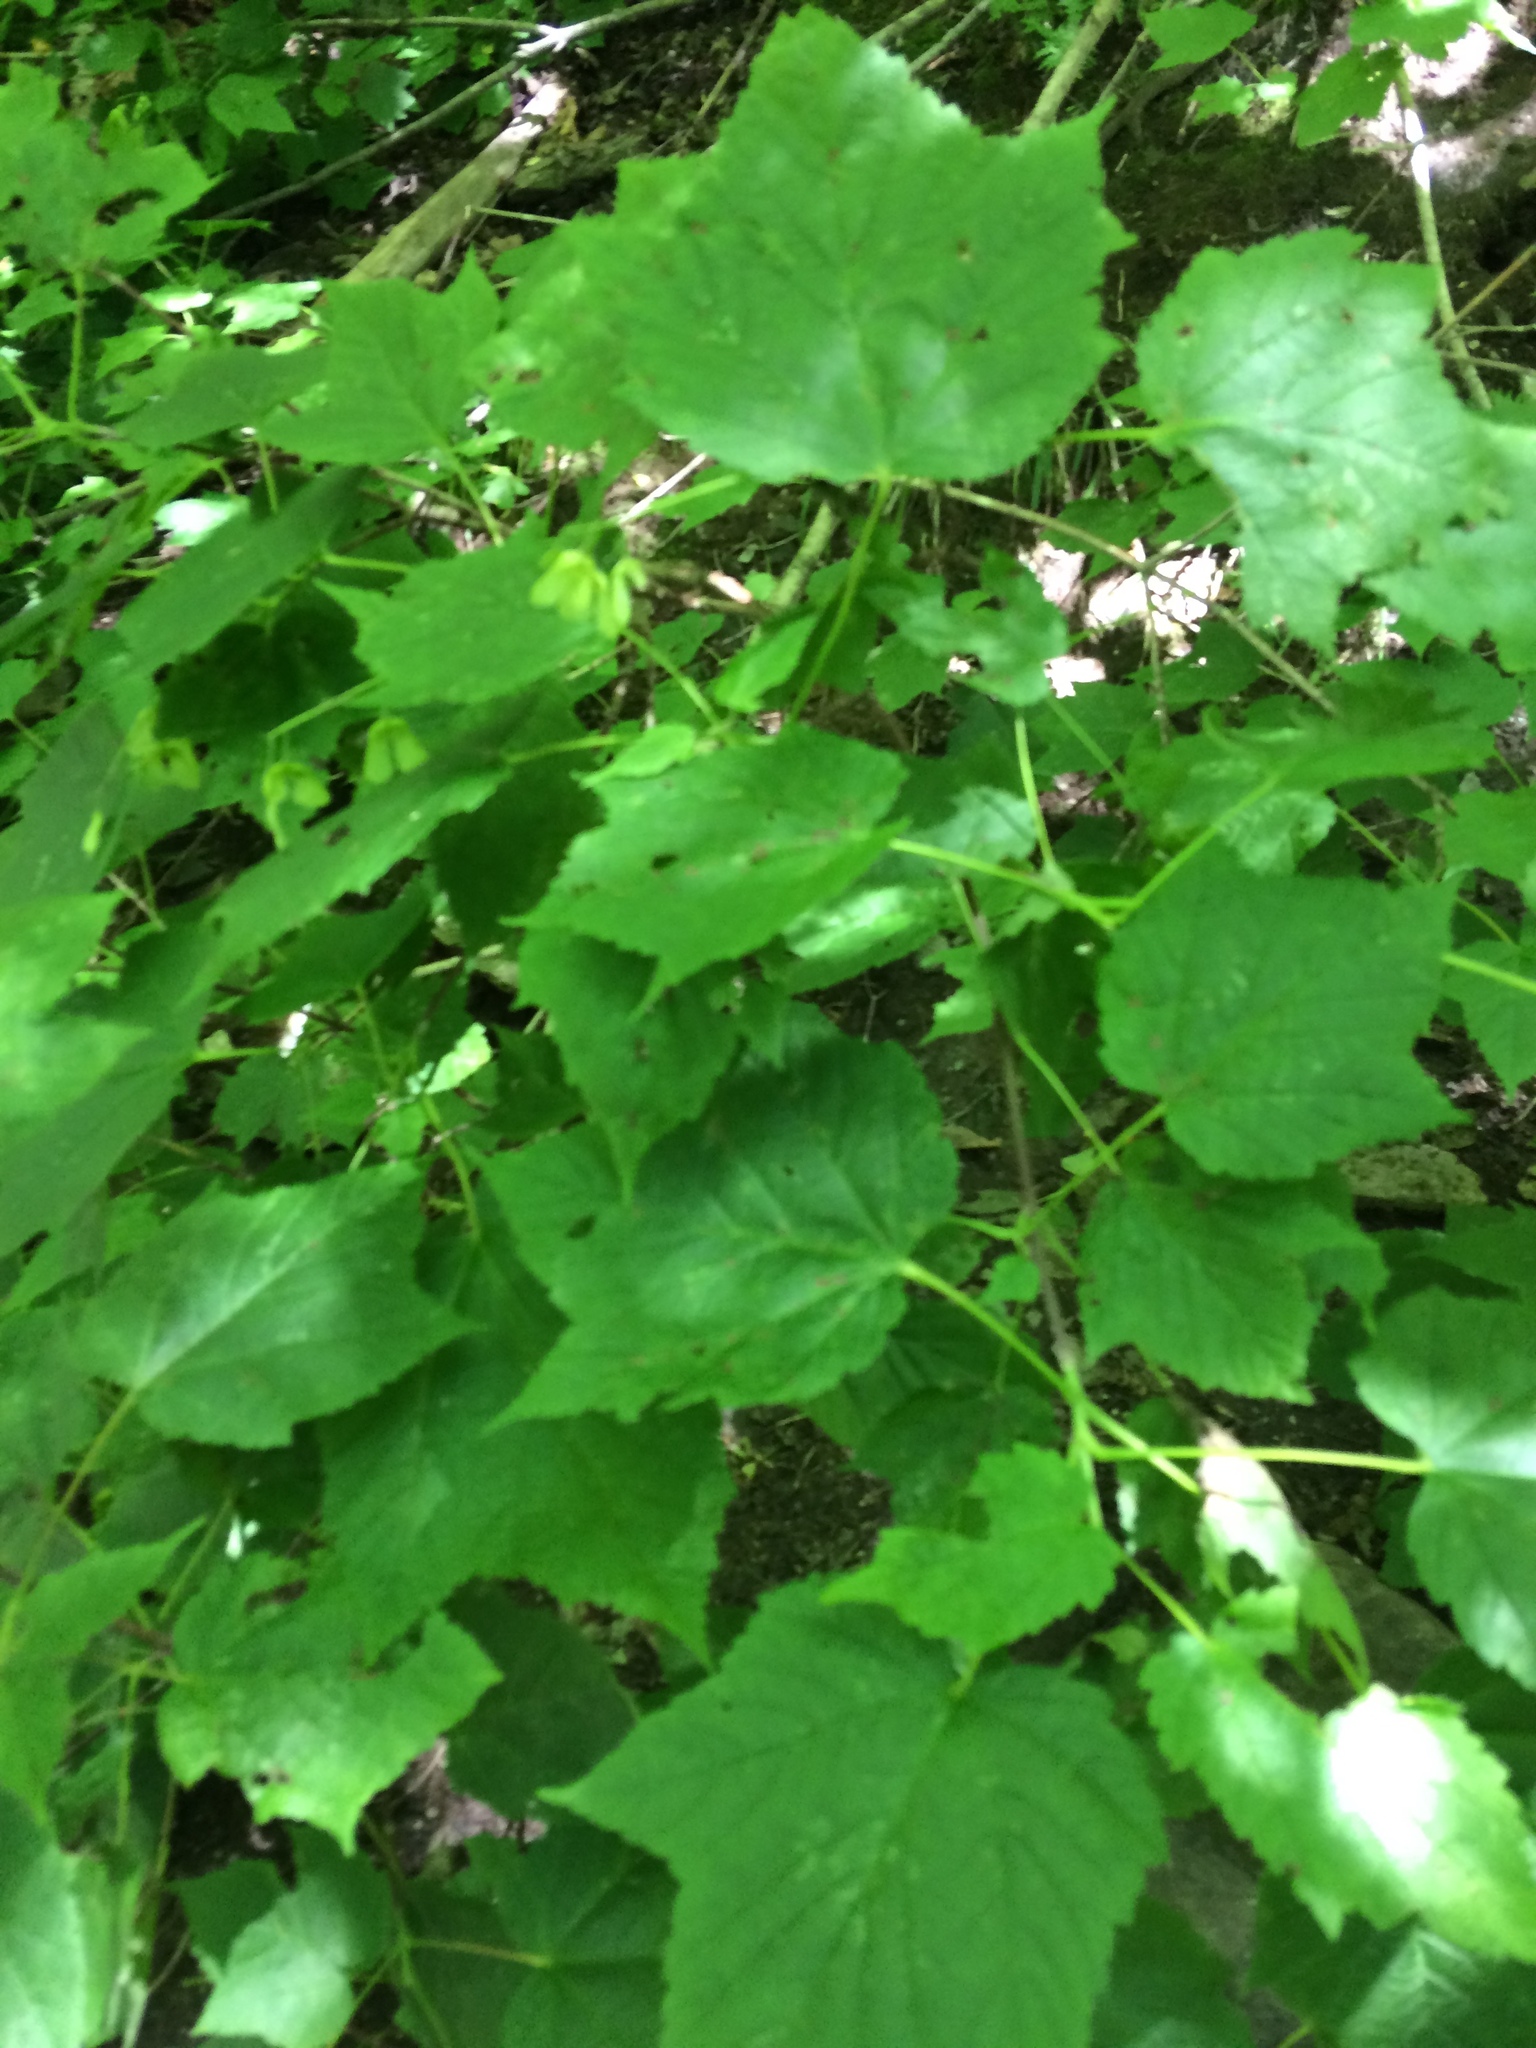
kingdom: Plantae
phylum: Tracheophyta
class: Magnoliopsida
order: Sapindales
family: Sapindaceae
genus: Acer
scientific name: Acer spicatum
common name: Mountain maple
